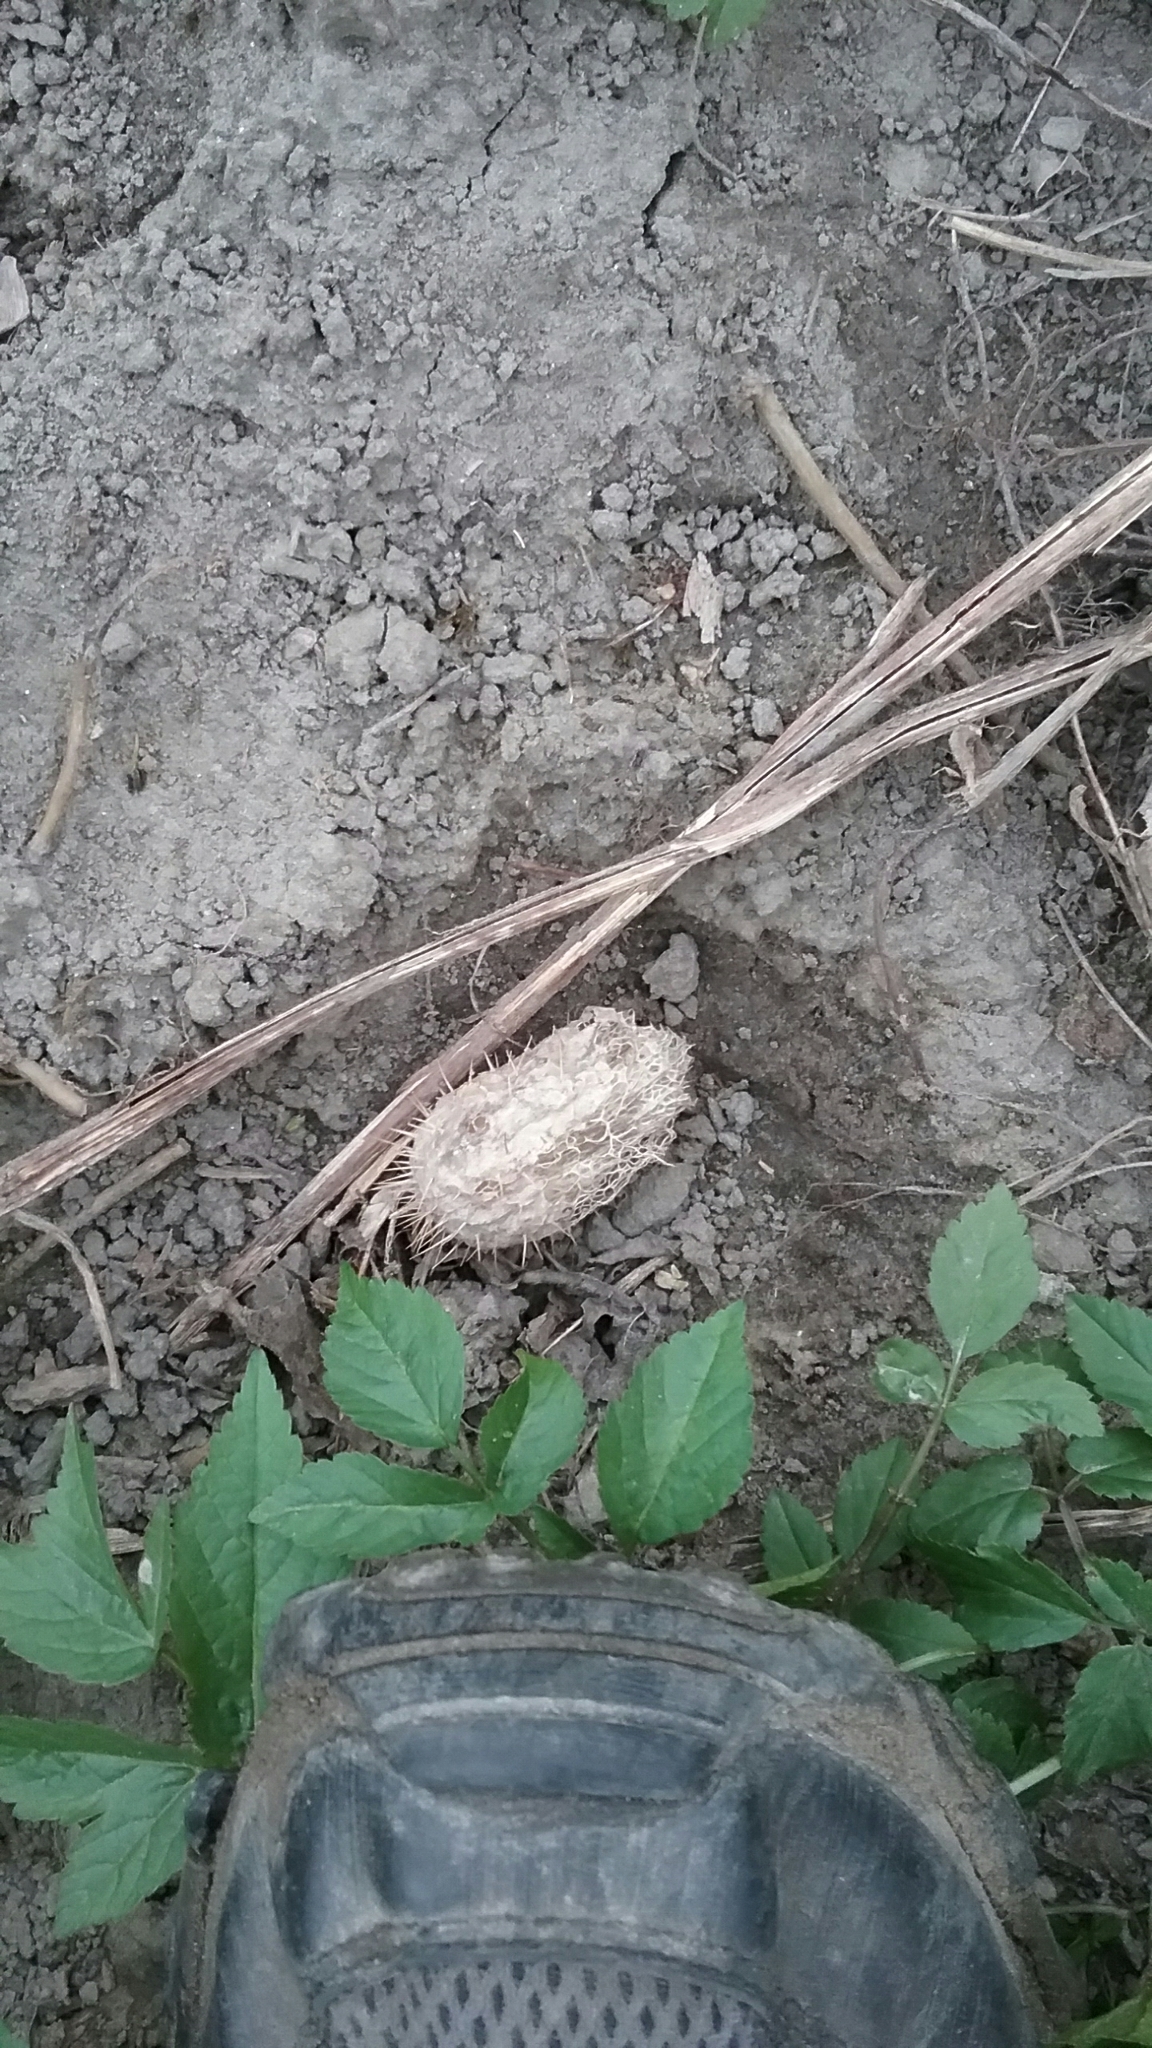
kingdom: Plantae
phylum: Tracheophyta
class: Magnoliopsida
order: Cucurbitales
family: Cucurbitaceae
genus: Echinocystis
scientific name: Echinocystis lobata
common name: Wild cucumber
